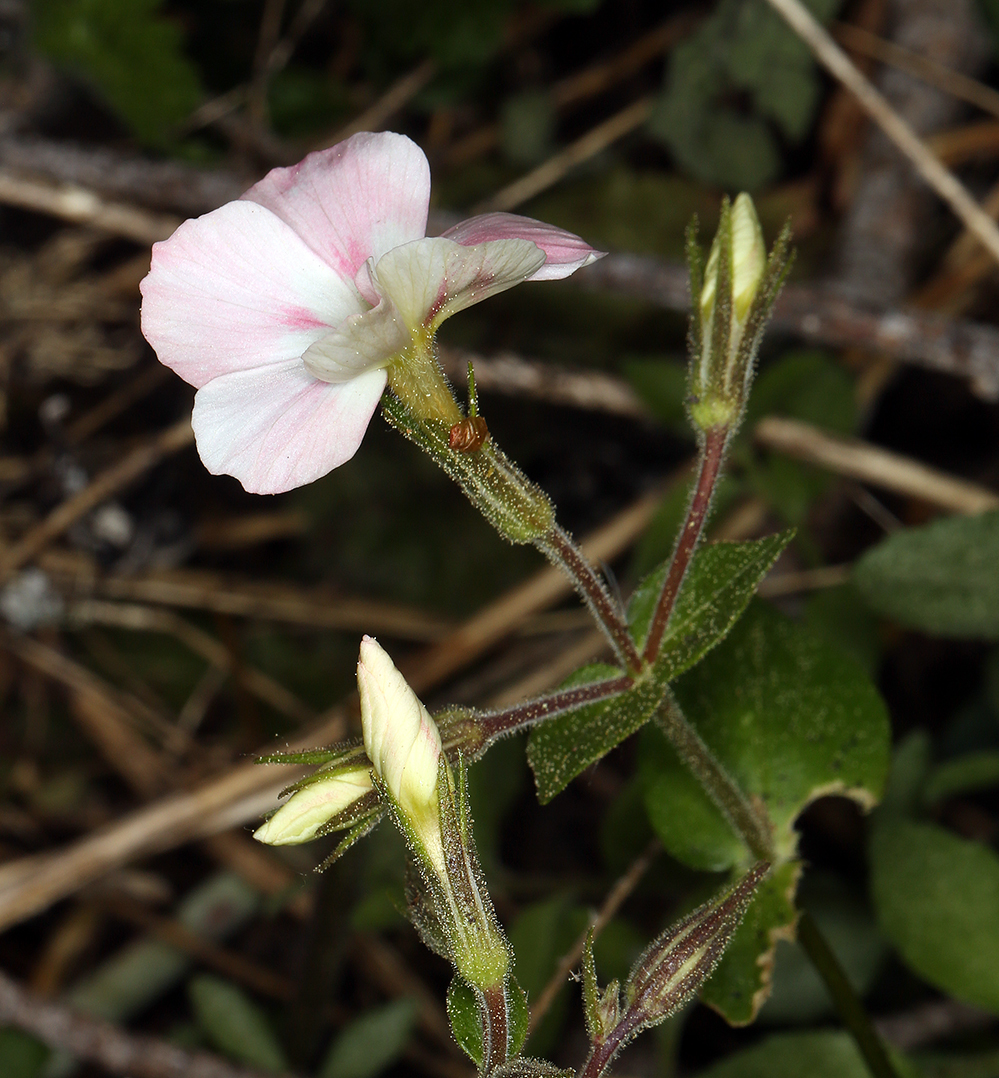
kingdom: Plantae
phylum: Tracheophyta
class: Magnoliopsida
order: Ericales
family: Polemoniaceae
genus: Phlox
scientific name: Phlox adsurgens
